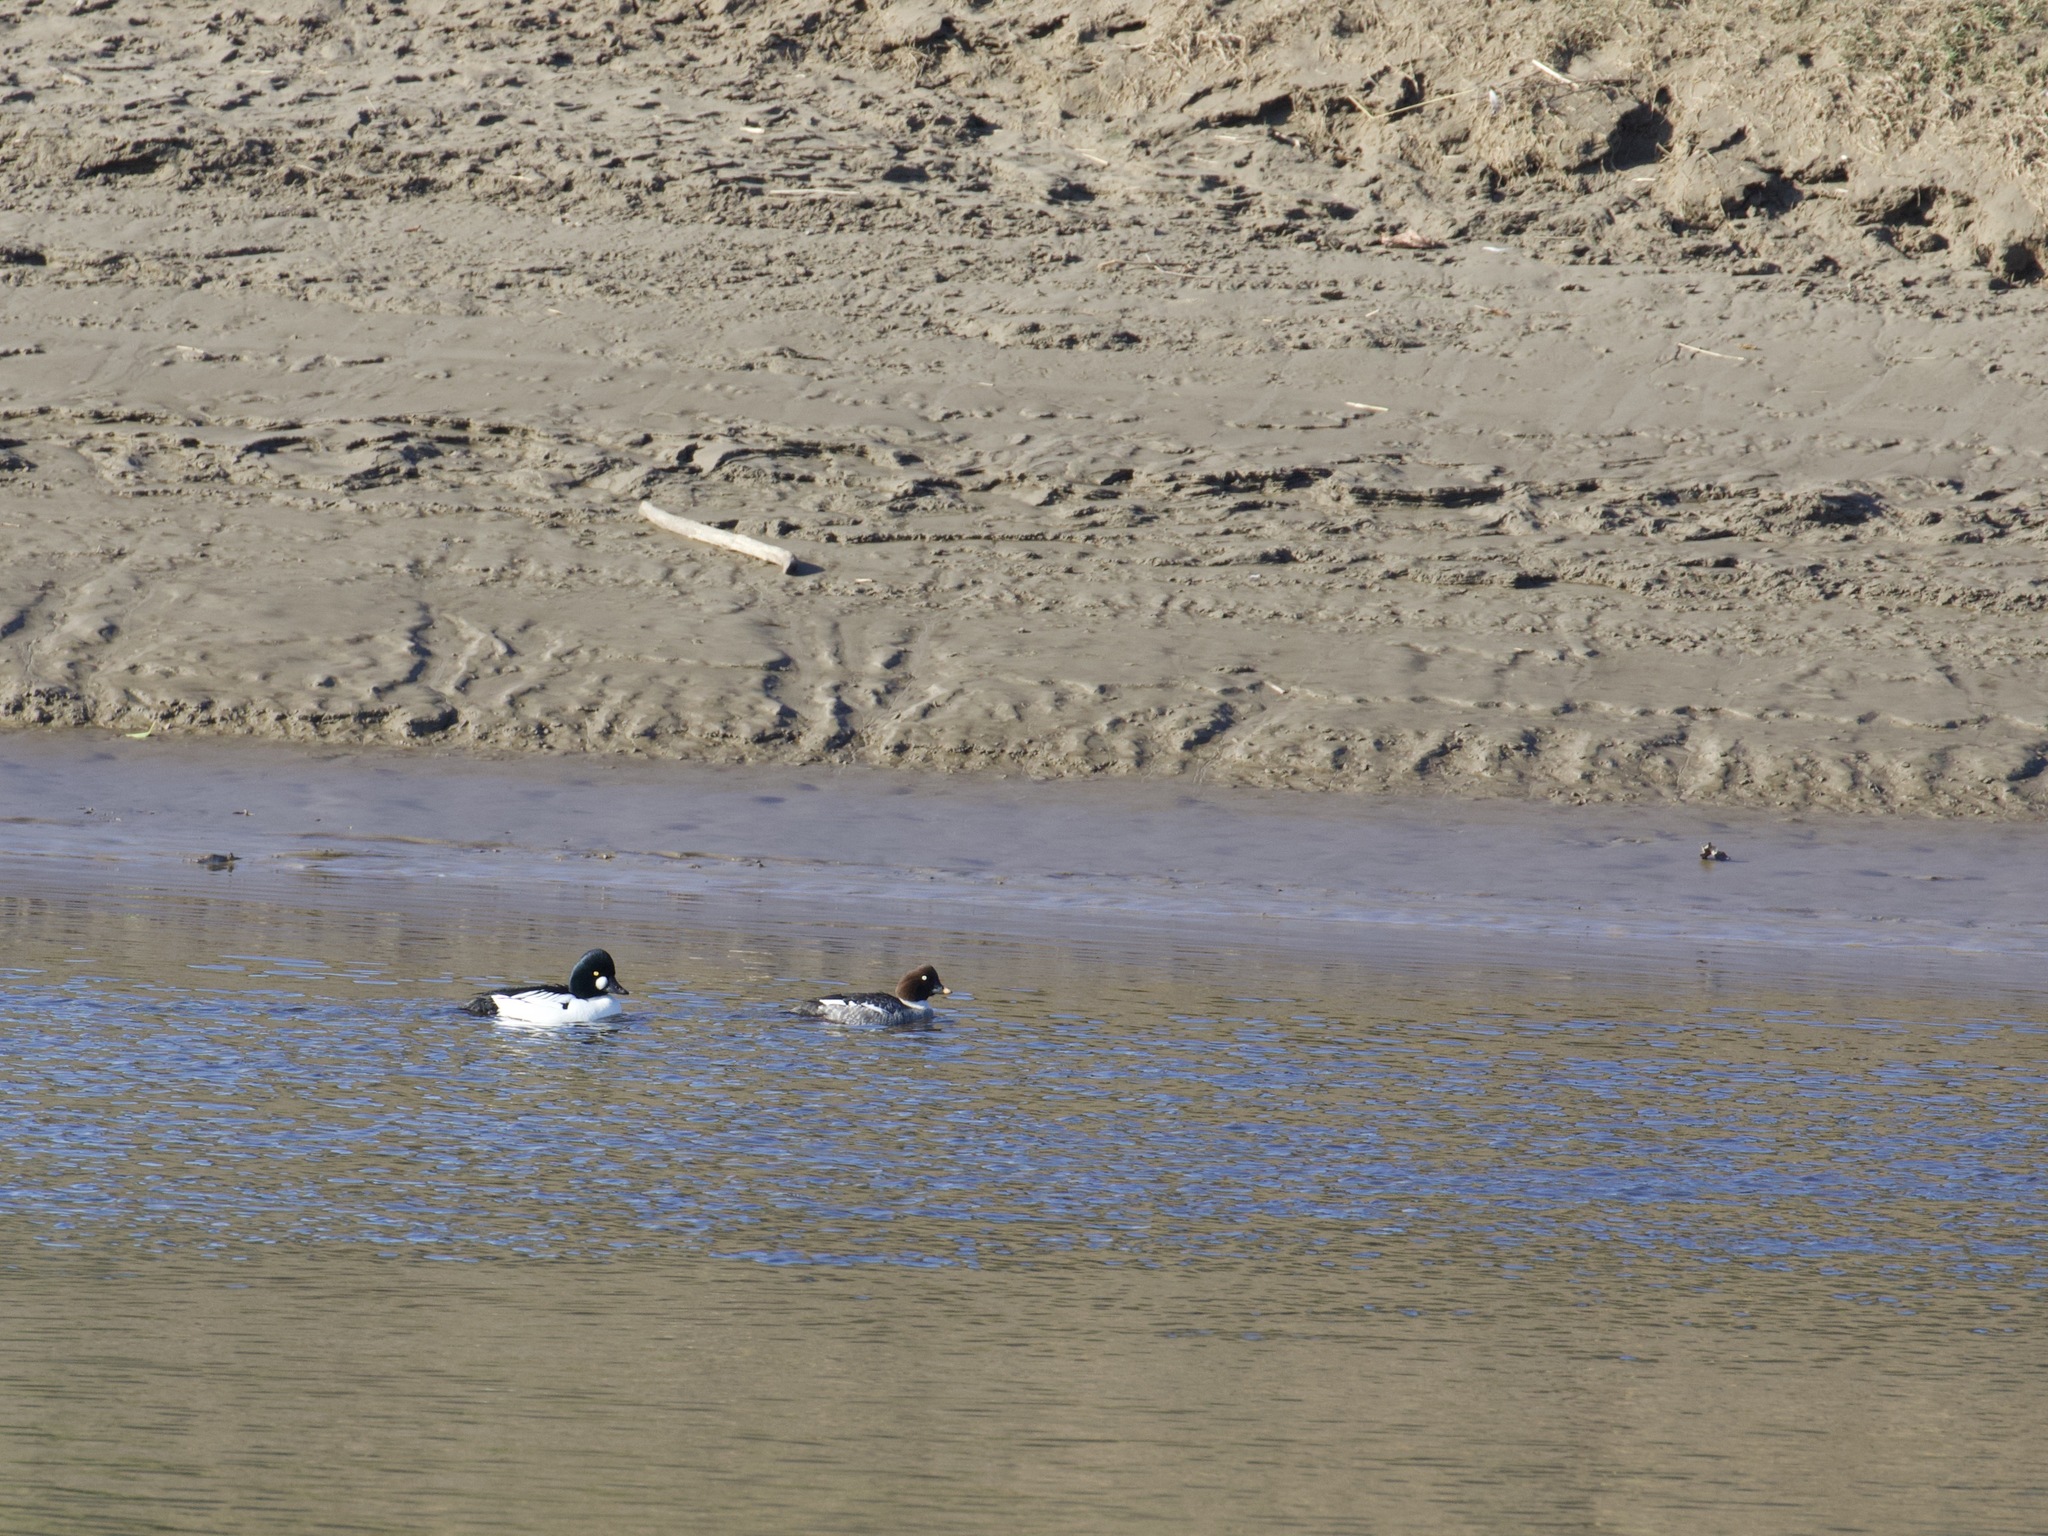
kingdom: Animalia
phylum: Chordata
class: Aves
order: Anseriformes
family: Anatidae
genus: Bucephala
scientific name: Bucephala clangula
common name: Common goldeneye
